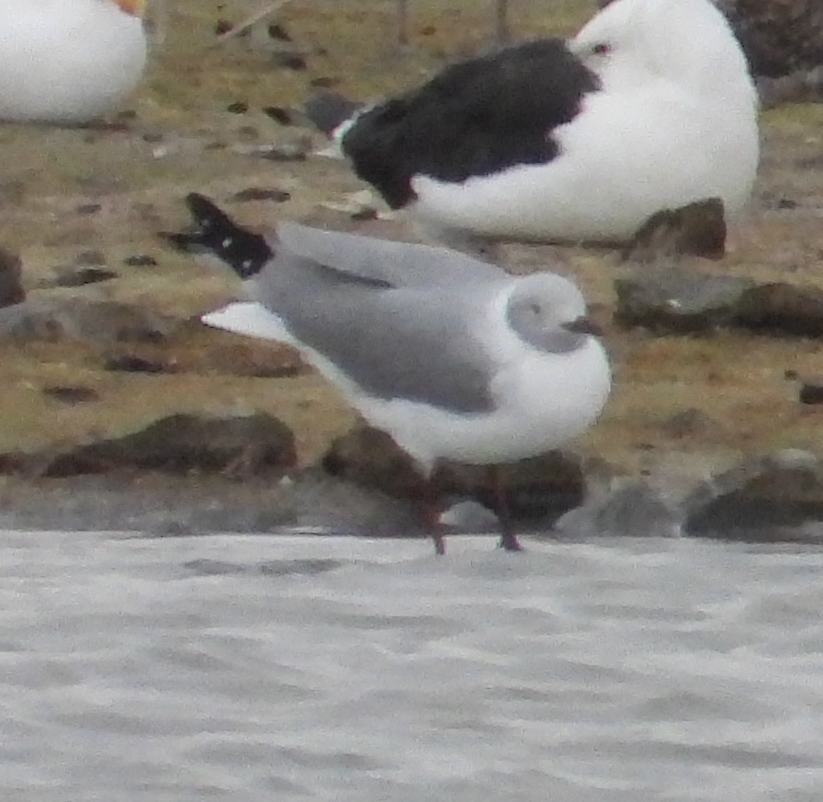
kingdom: Animalia
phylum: Chordata
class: Aves
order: Charadriiformes
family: Laridae
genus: Chroicocephalus
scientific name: Chroicocephalus cirrocephalus
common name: Grey-headed gull
